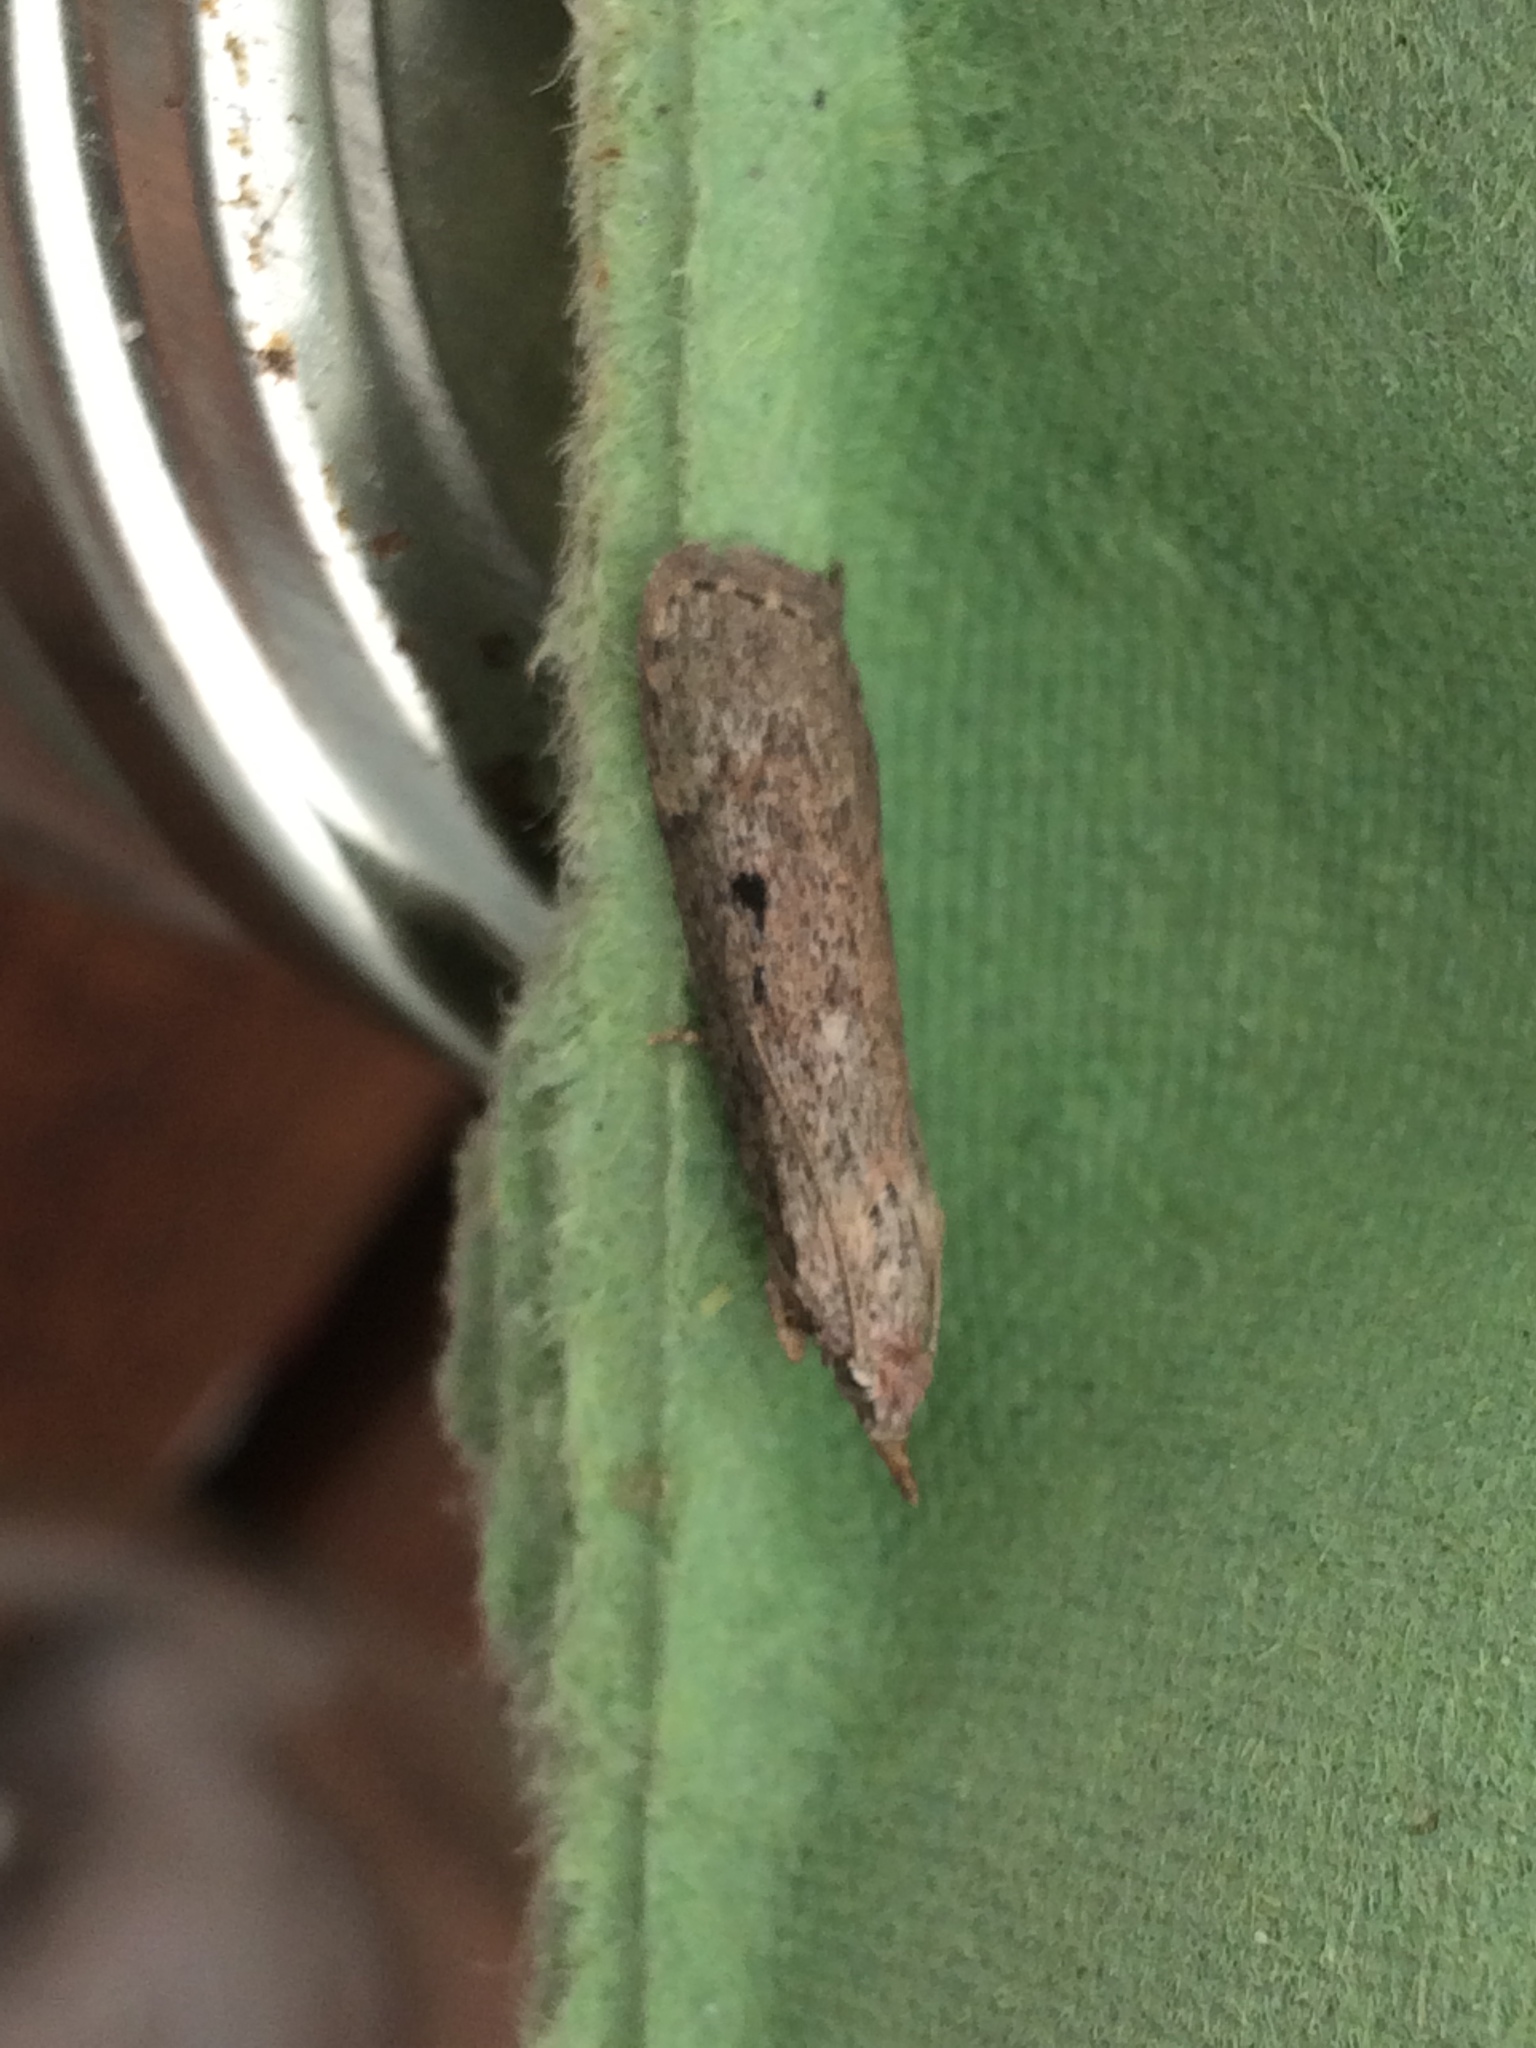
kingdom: Animalia
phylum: Arthropoda
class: Insecta
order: Lepidoptera
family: Pyralidae
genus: Aphomia
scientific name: Aphomia sociella
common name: Bee moth
